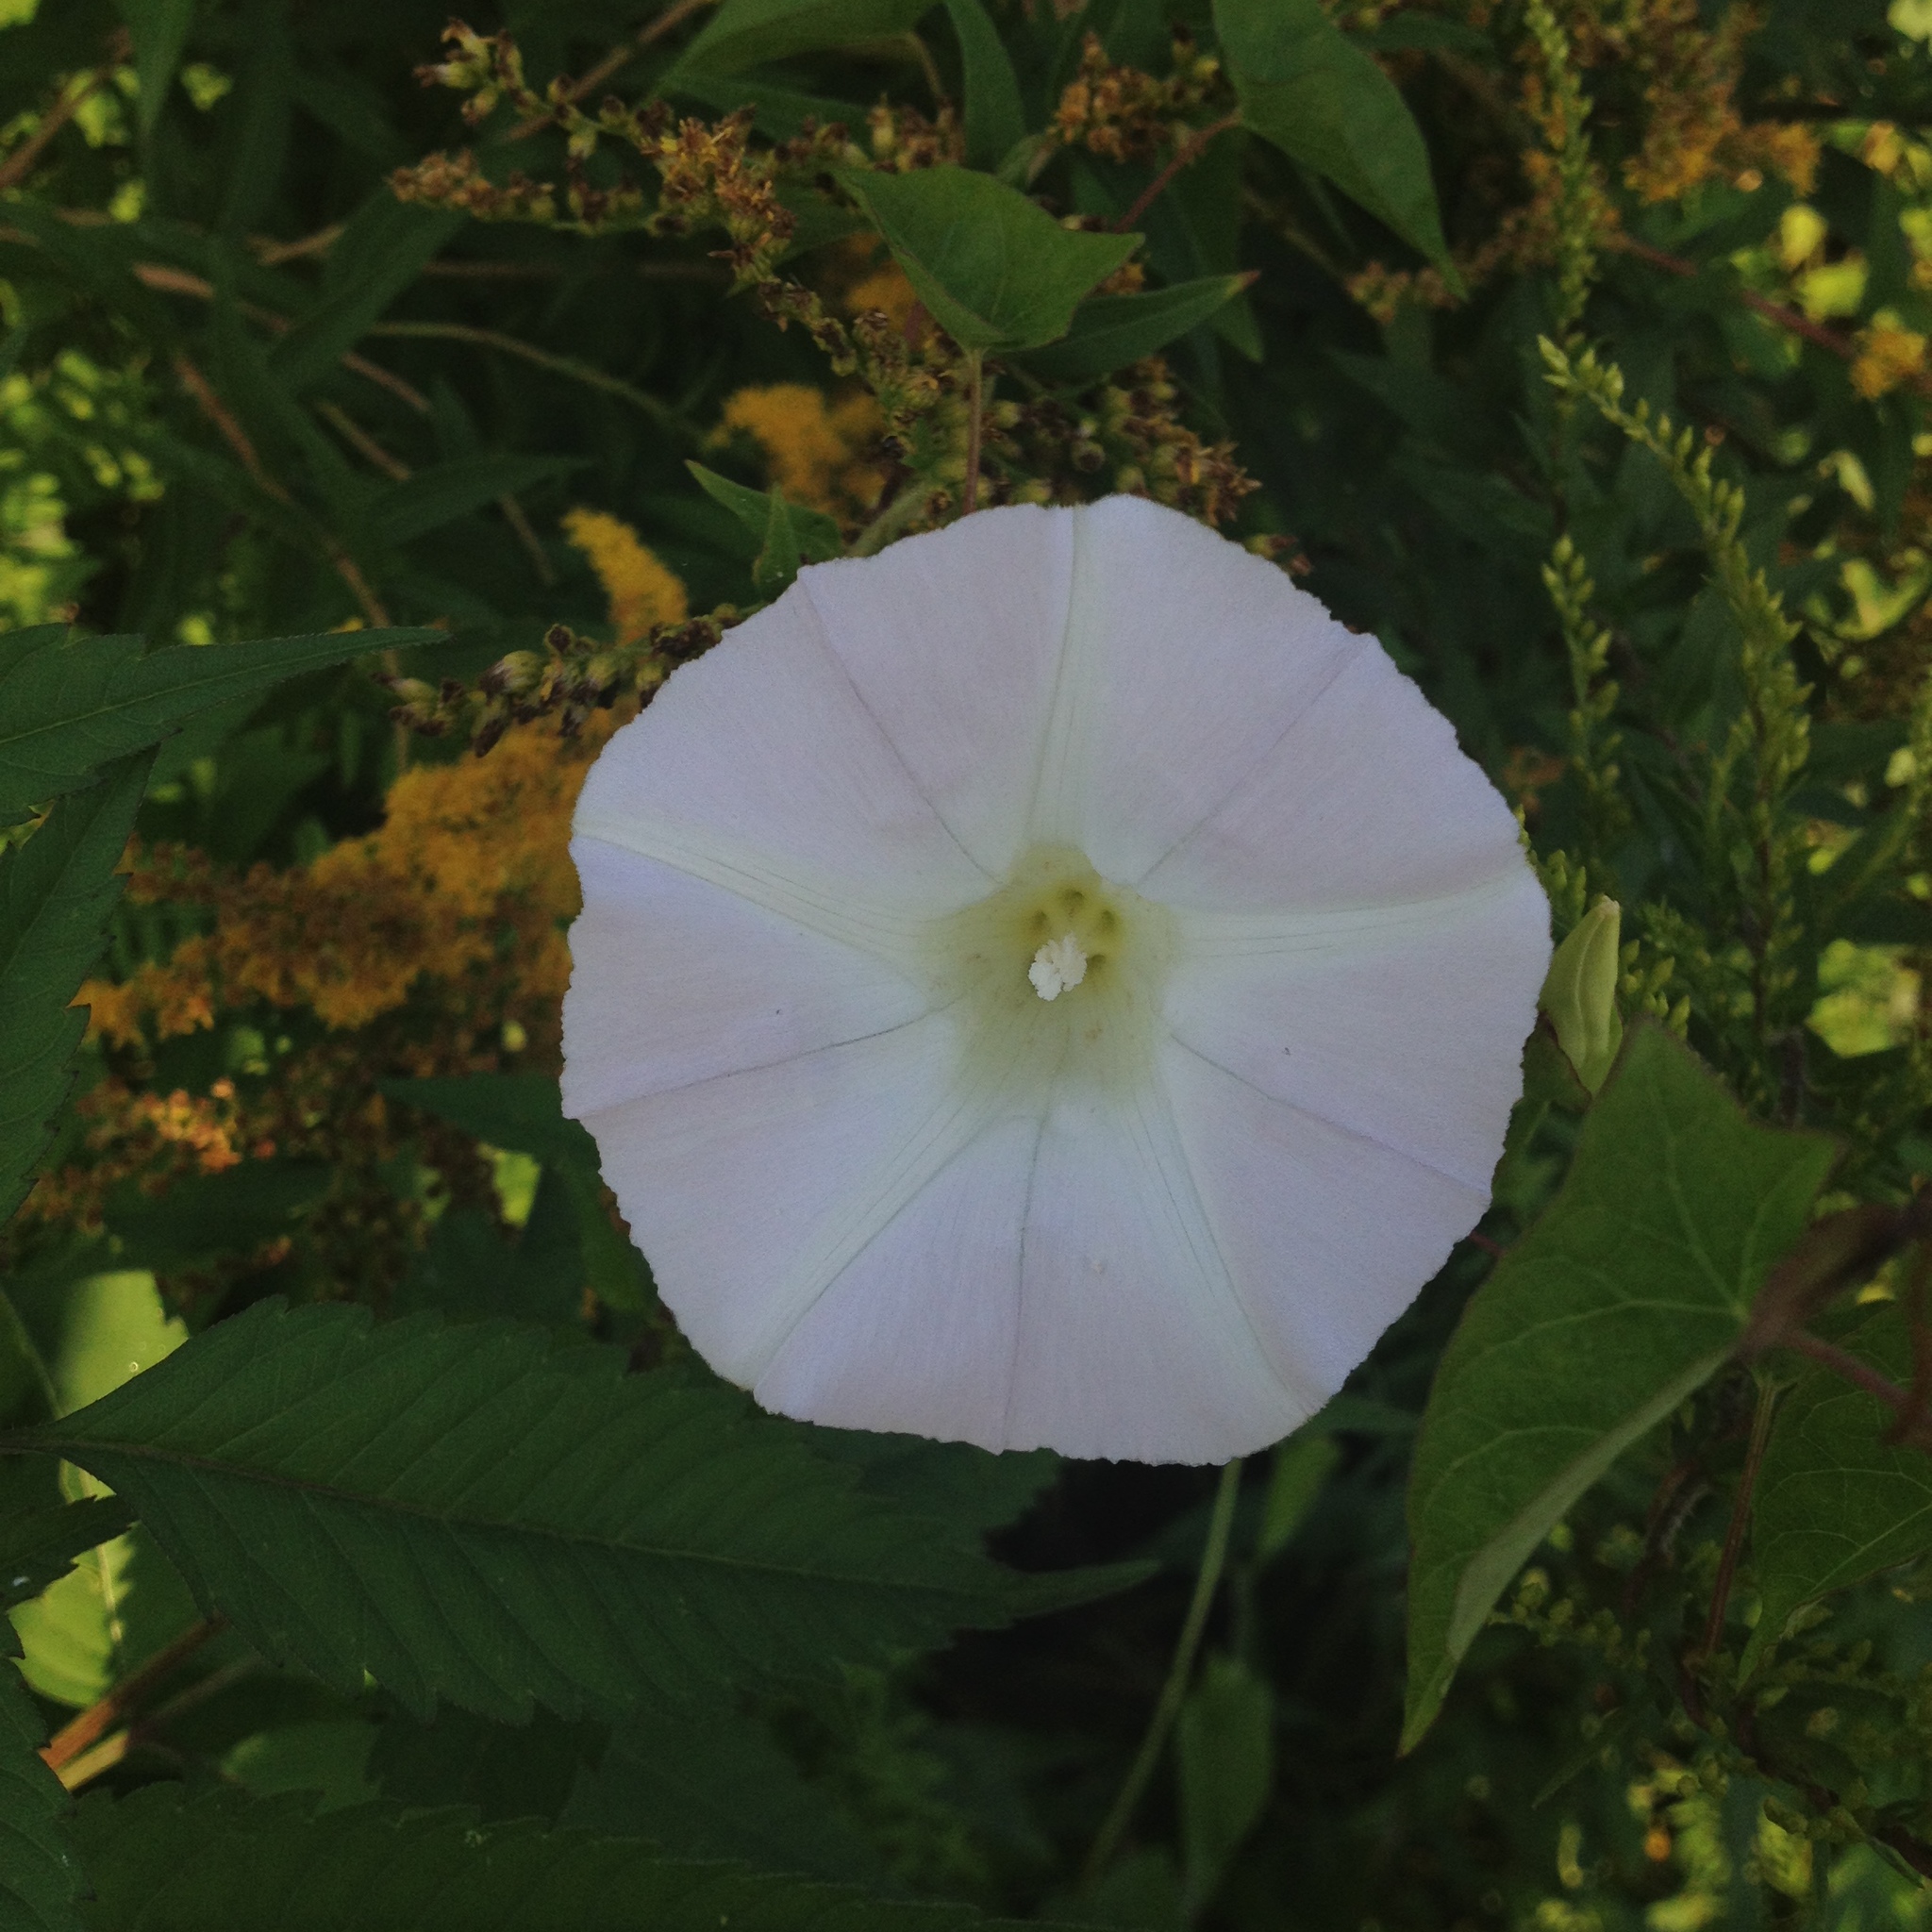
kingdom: Plantae
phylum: Tracheophyta
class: Magnoliopsida
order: Solanales
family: Convolvulaceae
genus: Calystegia
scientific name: Calystegia sepium
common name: Hedge bindweed
